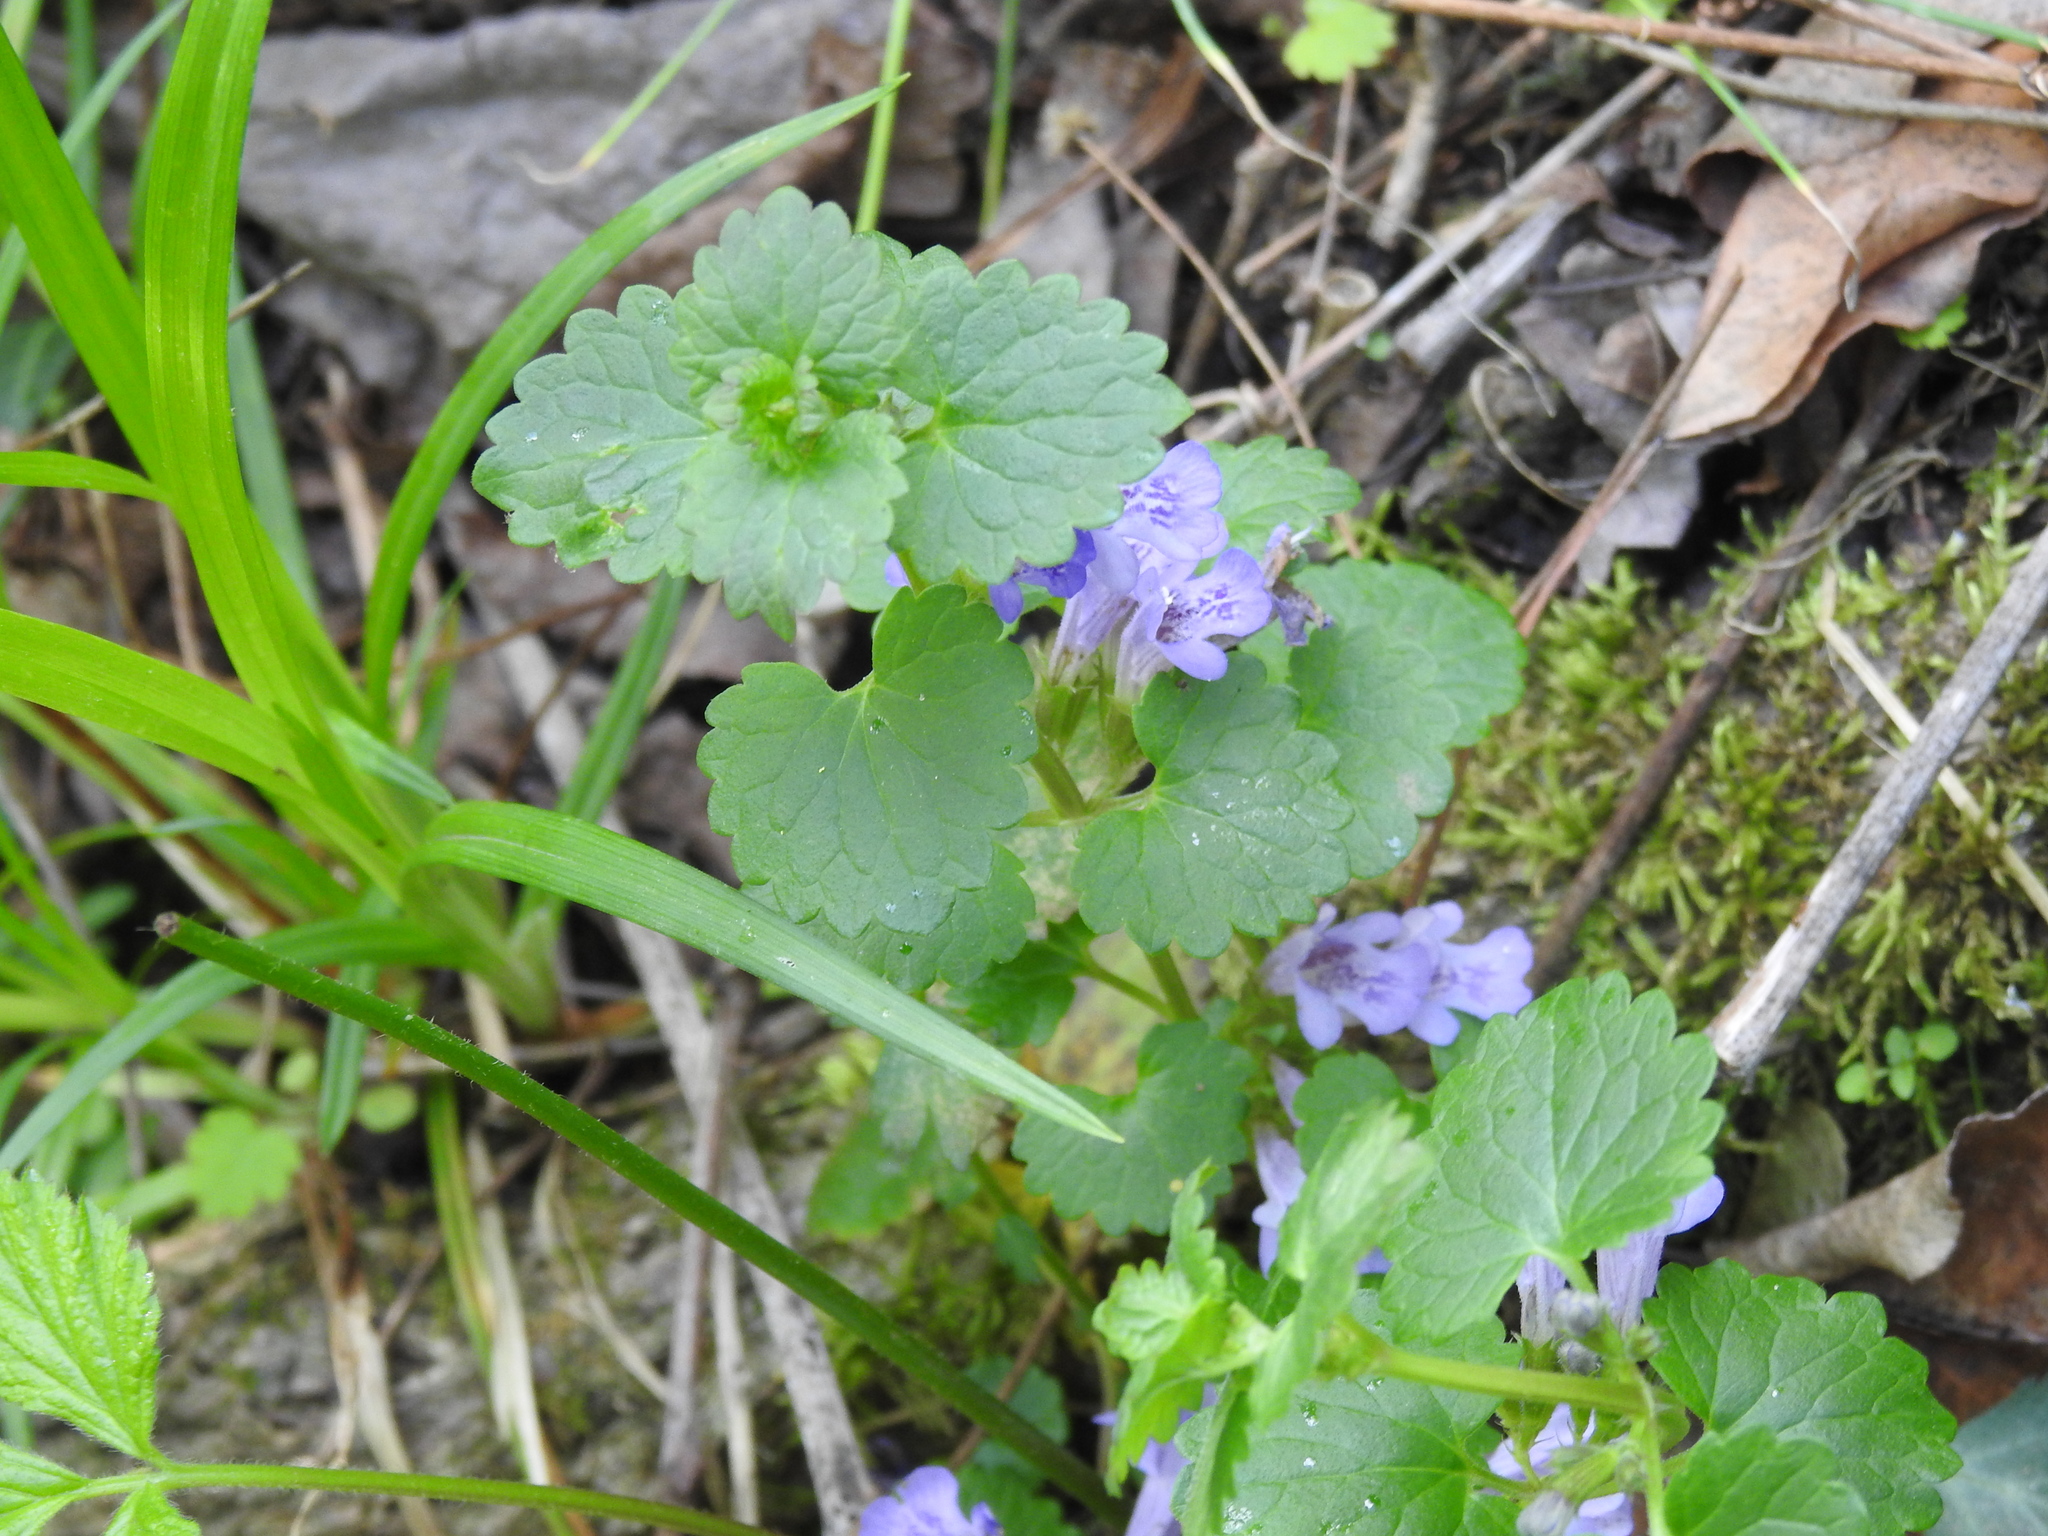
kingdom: Plantae
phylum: Tracheophyta
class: Magnoliopsida
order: Lamiales
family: Lamiaceae
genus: Glechoma
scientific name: Glechoma hederacea
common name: Ground ivy
